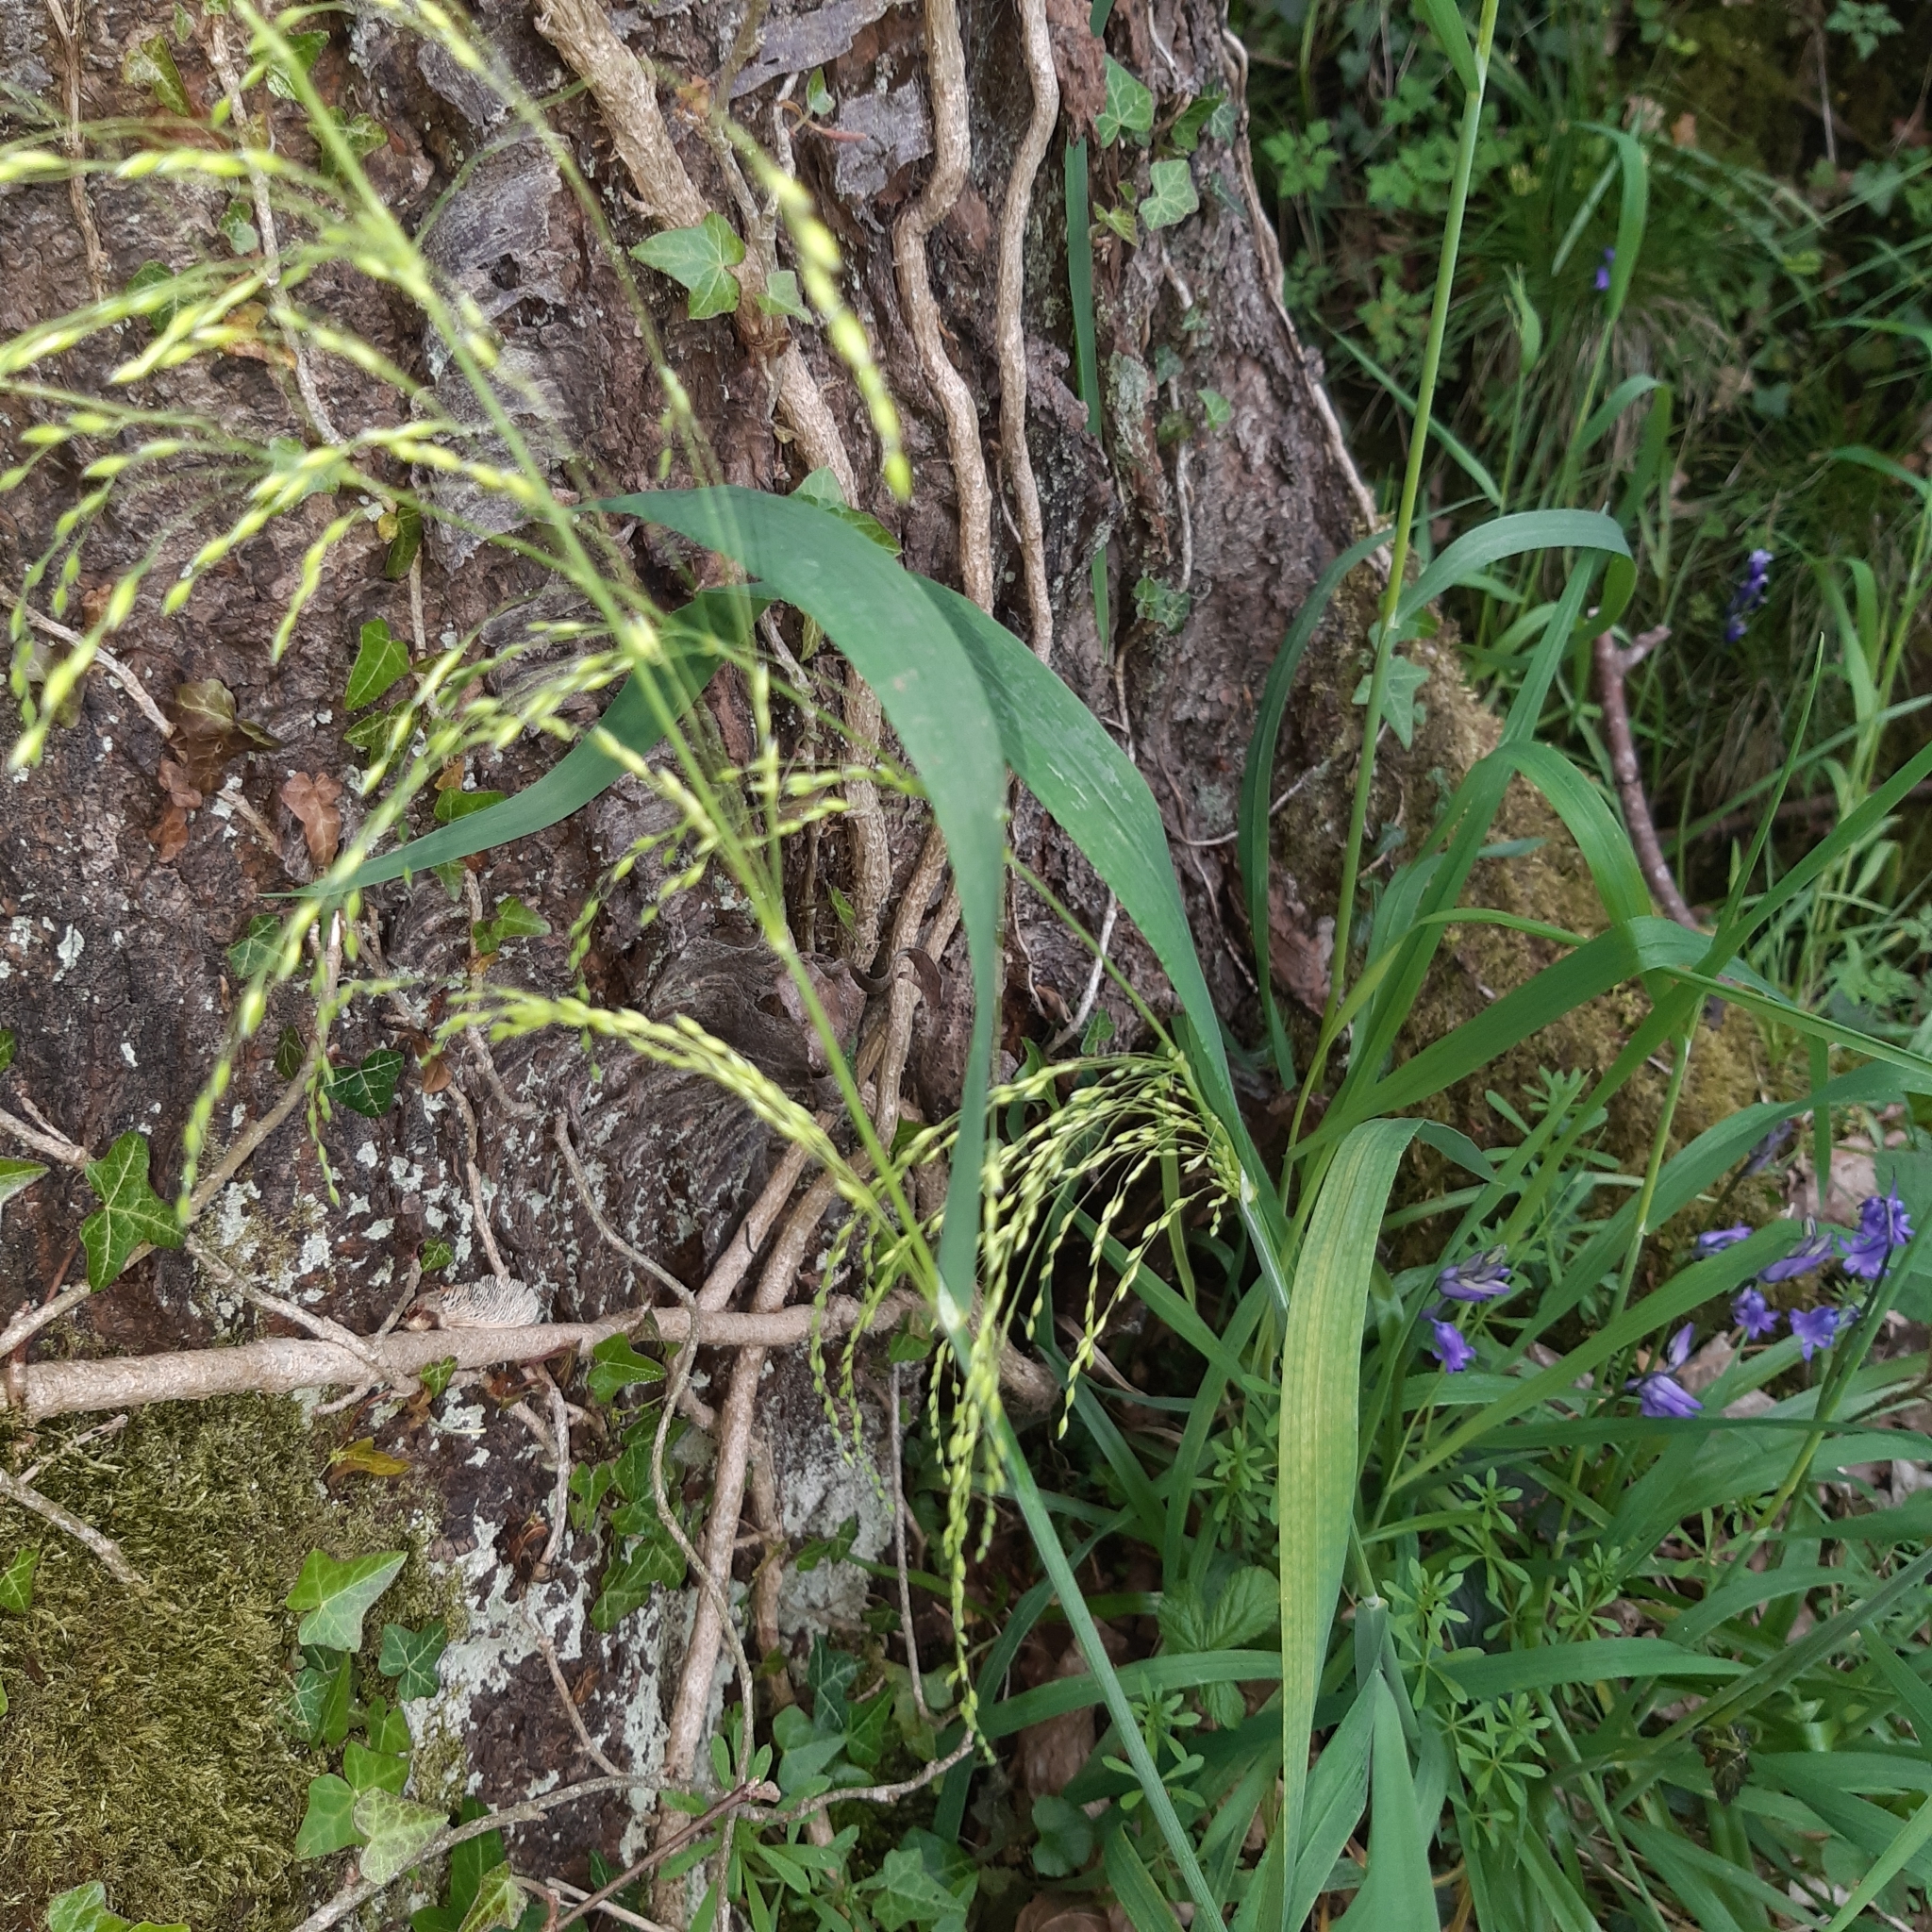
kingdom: Plantae
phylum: Tracheophyta
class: Liliopsida
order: Poales
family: Poaceae
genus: Milium
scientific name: Milium effusum
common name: Wood millet
